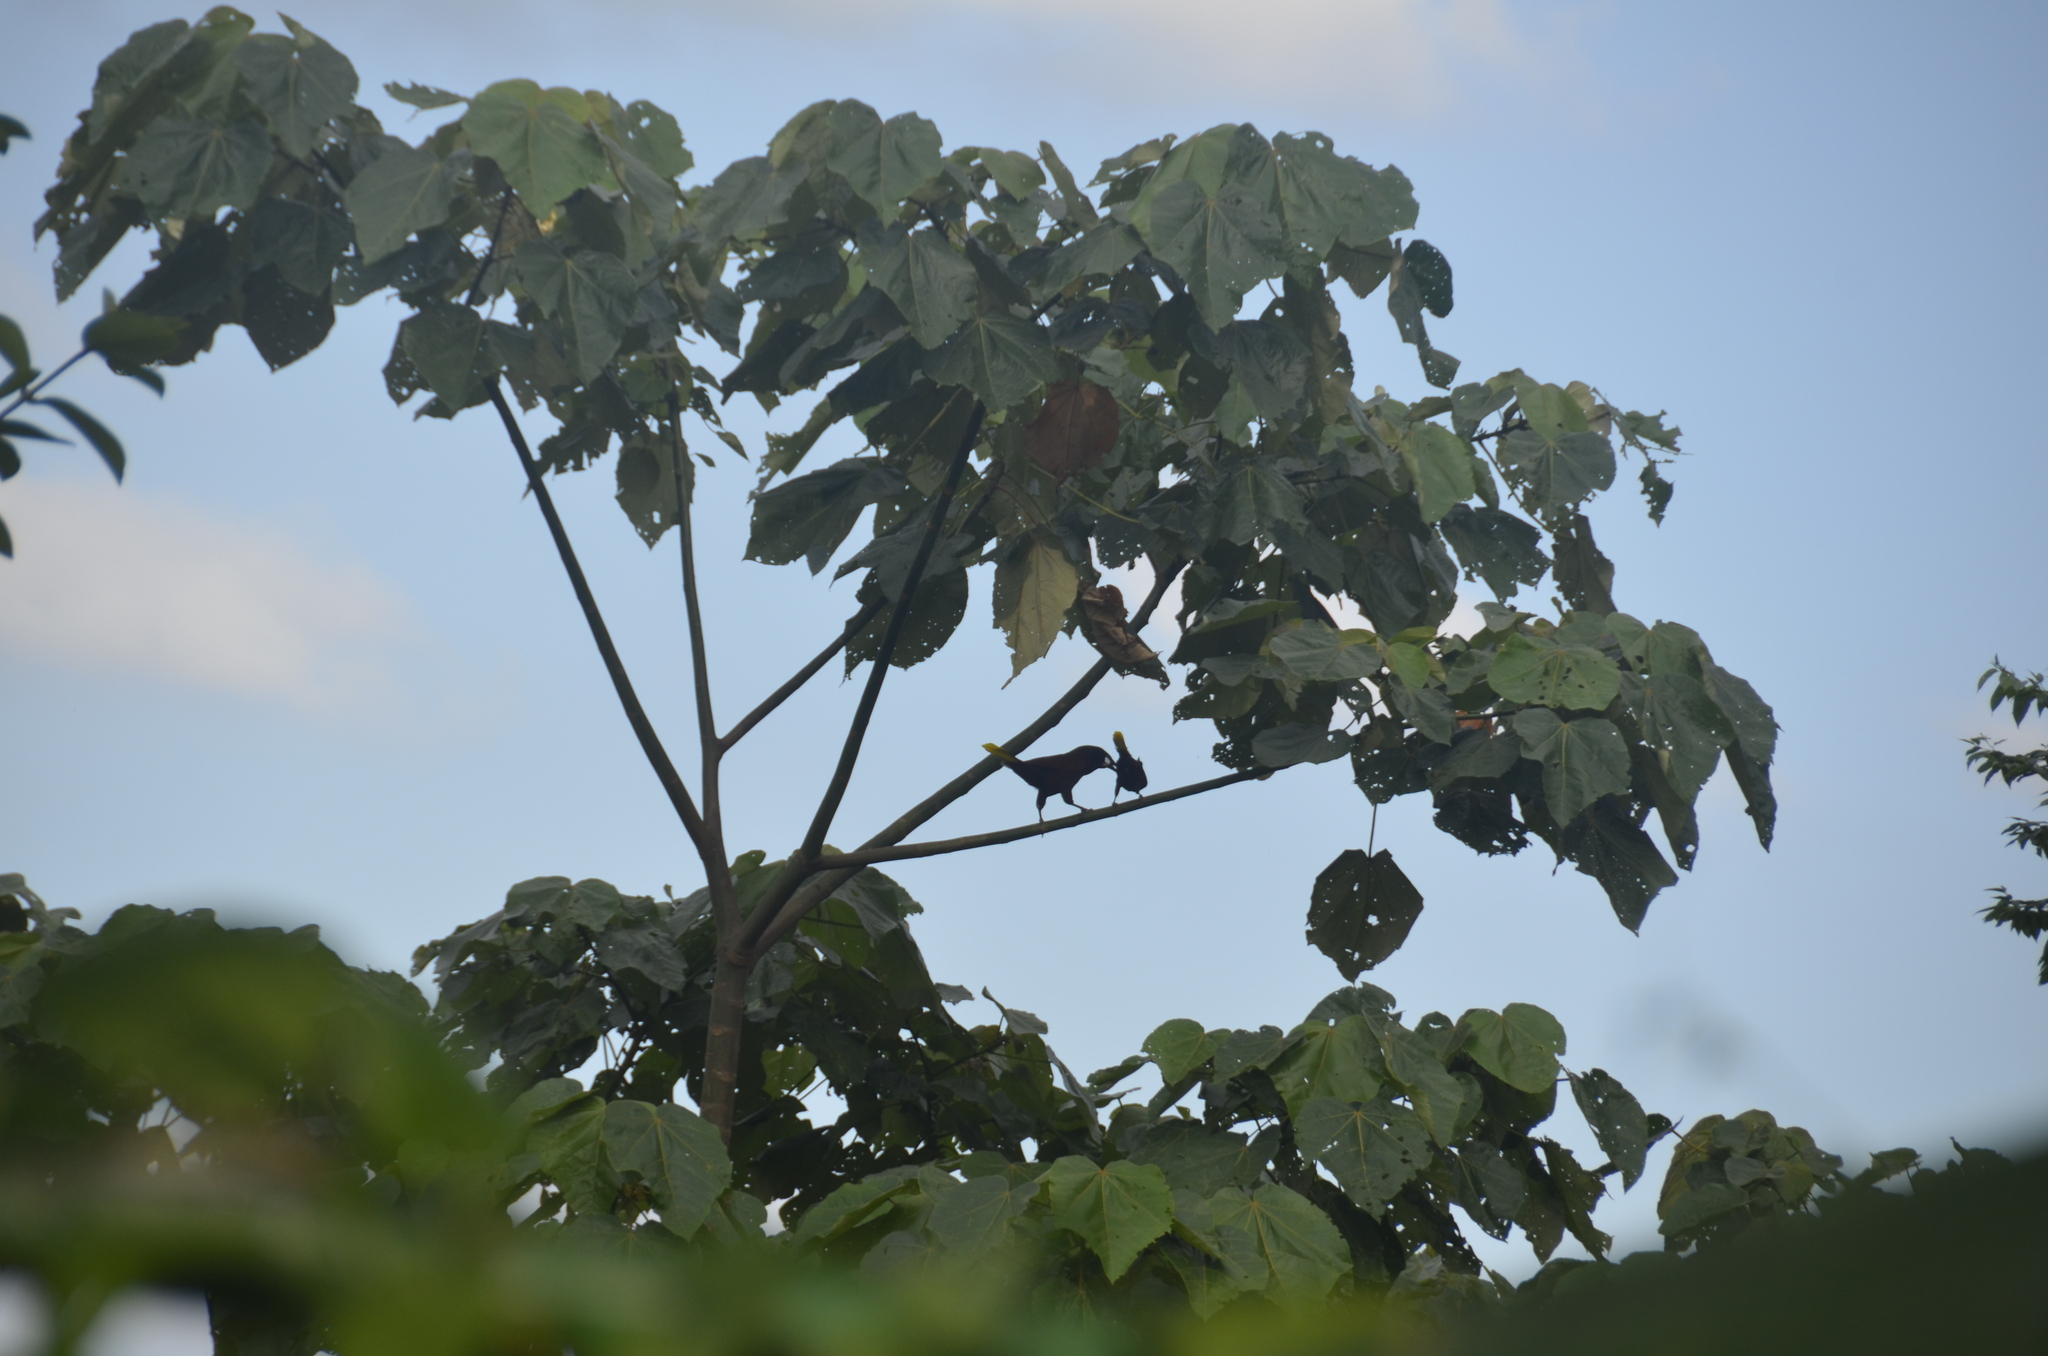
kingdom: Animalia
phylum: Chordata
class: Aves
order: Passeriformes
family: Icteridae
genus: Psarocolius
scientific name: Psarocolius montezuma
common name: Montezuma oropendola
